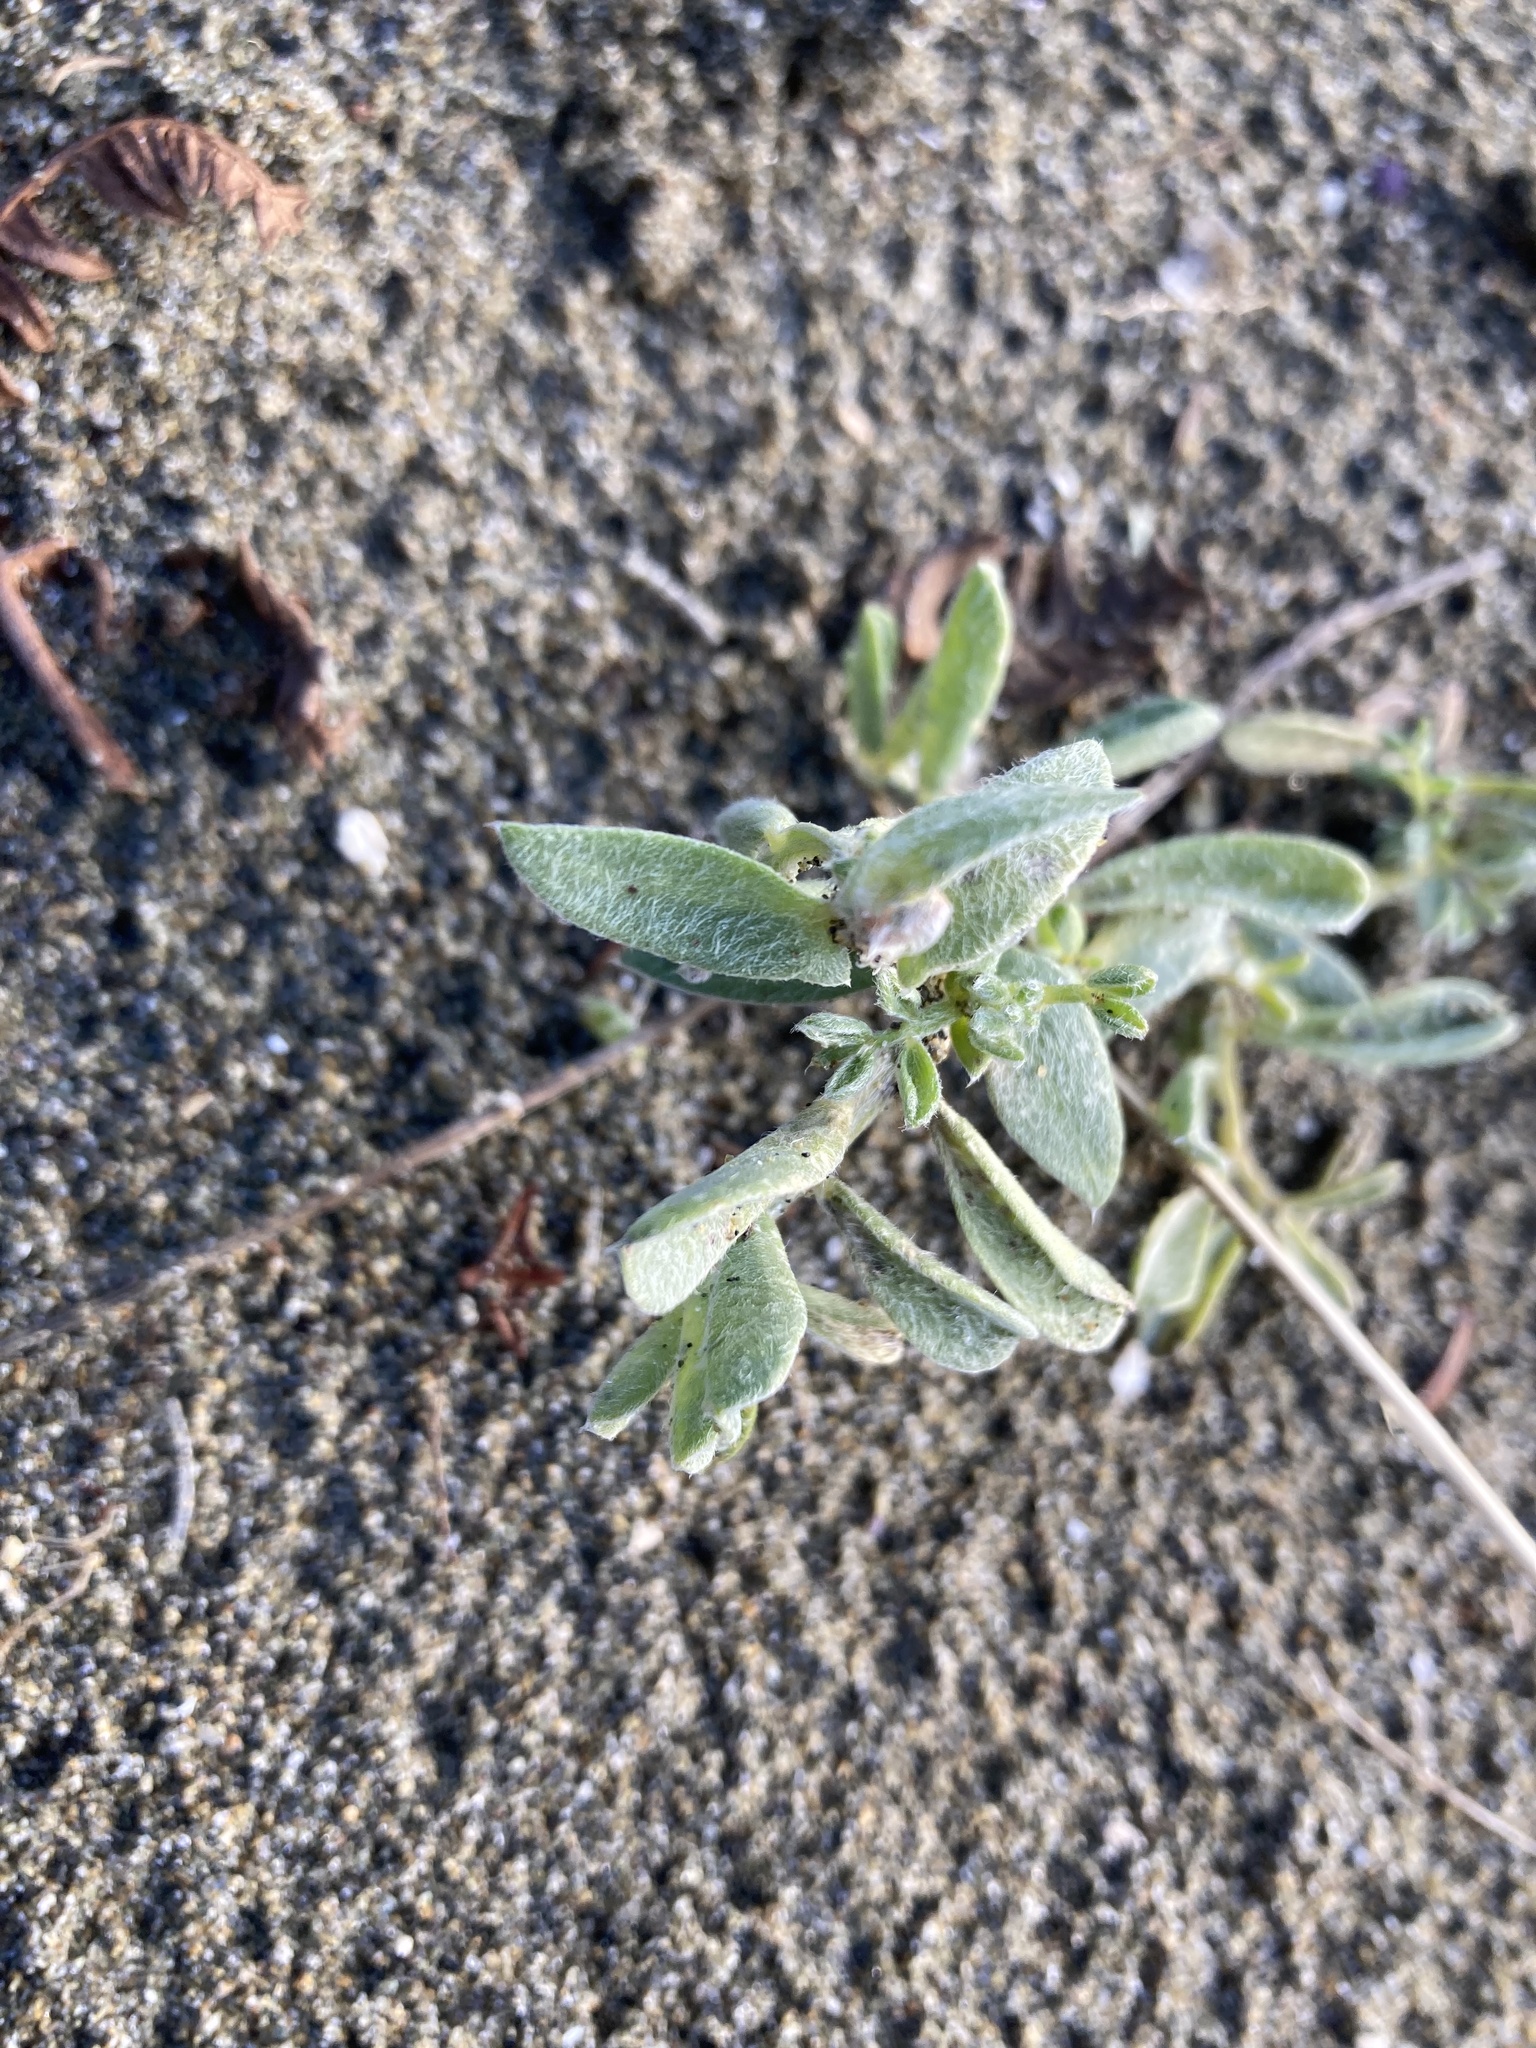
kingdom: Plantae
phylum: Tracheophyta
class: Magnoliopsida
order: Fabales
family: Fabaceae
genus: Lathyrus
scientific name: Lathyrus littoralis
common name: Dune sweet pea
